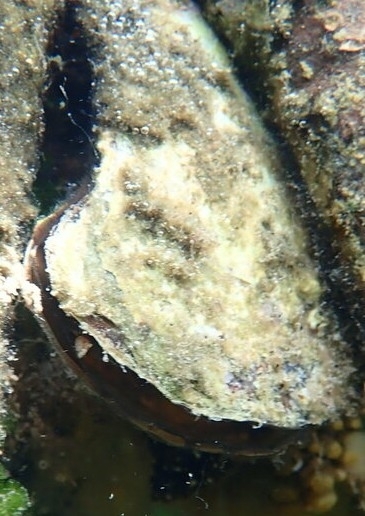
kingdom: Animalia
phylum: Mollusca
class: Bivalvia
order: Ostreida
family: Isognomonidae
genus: Isognomon
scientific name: Isognomon alatus
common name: Flat tree-oyster
